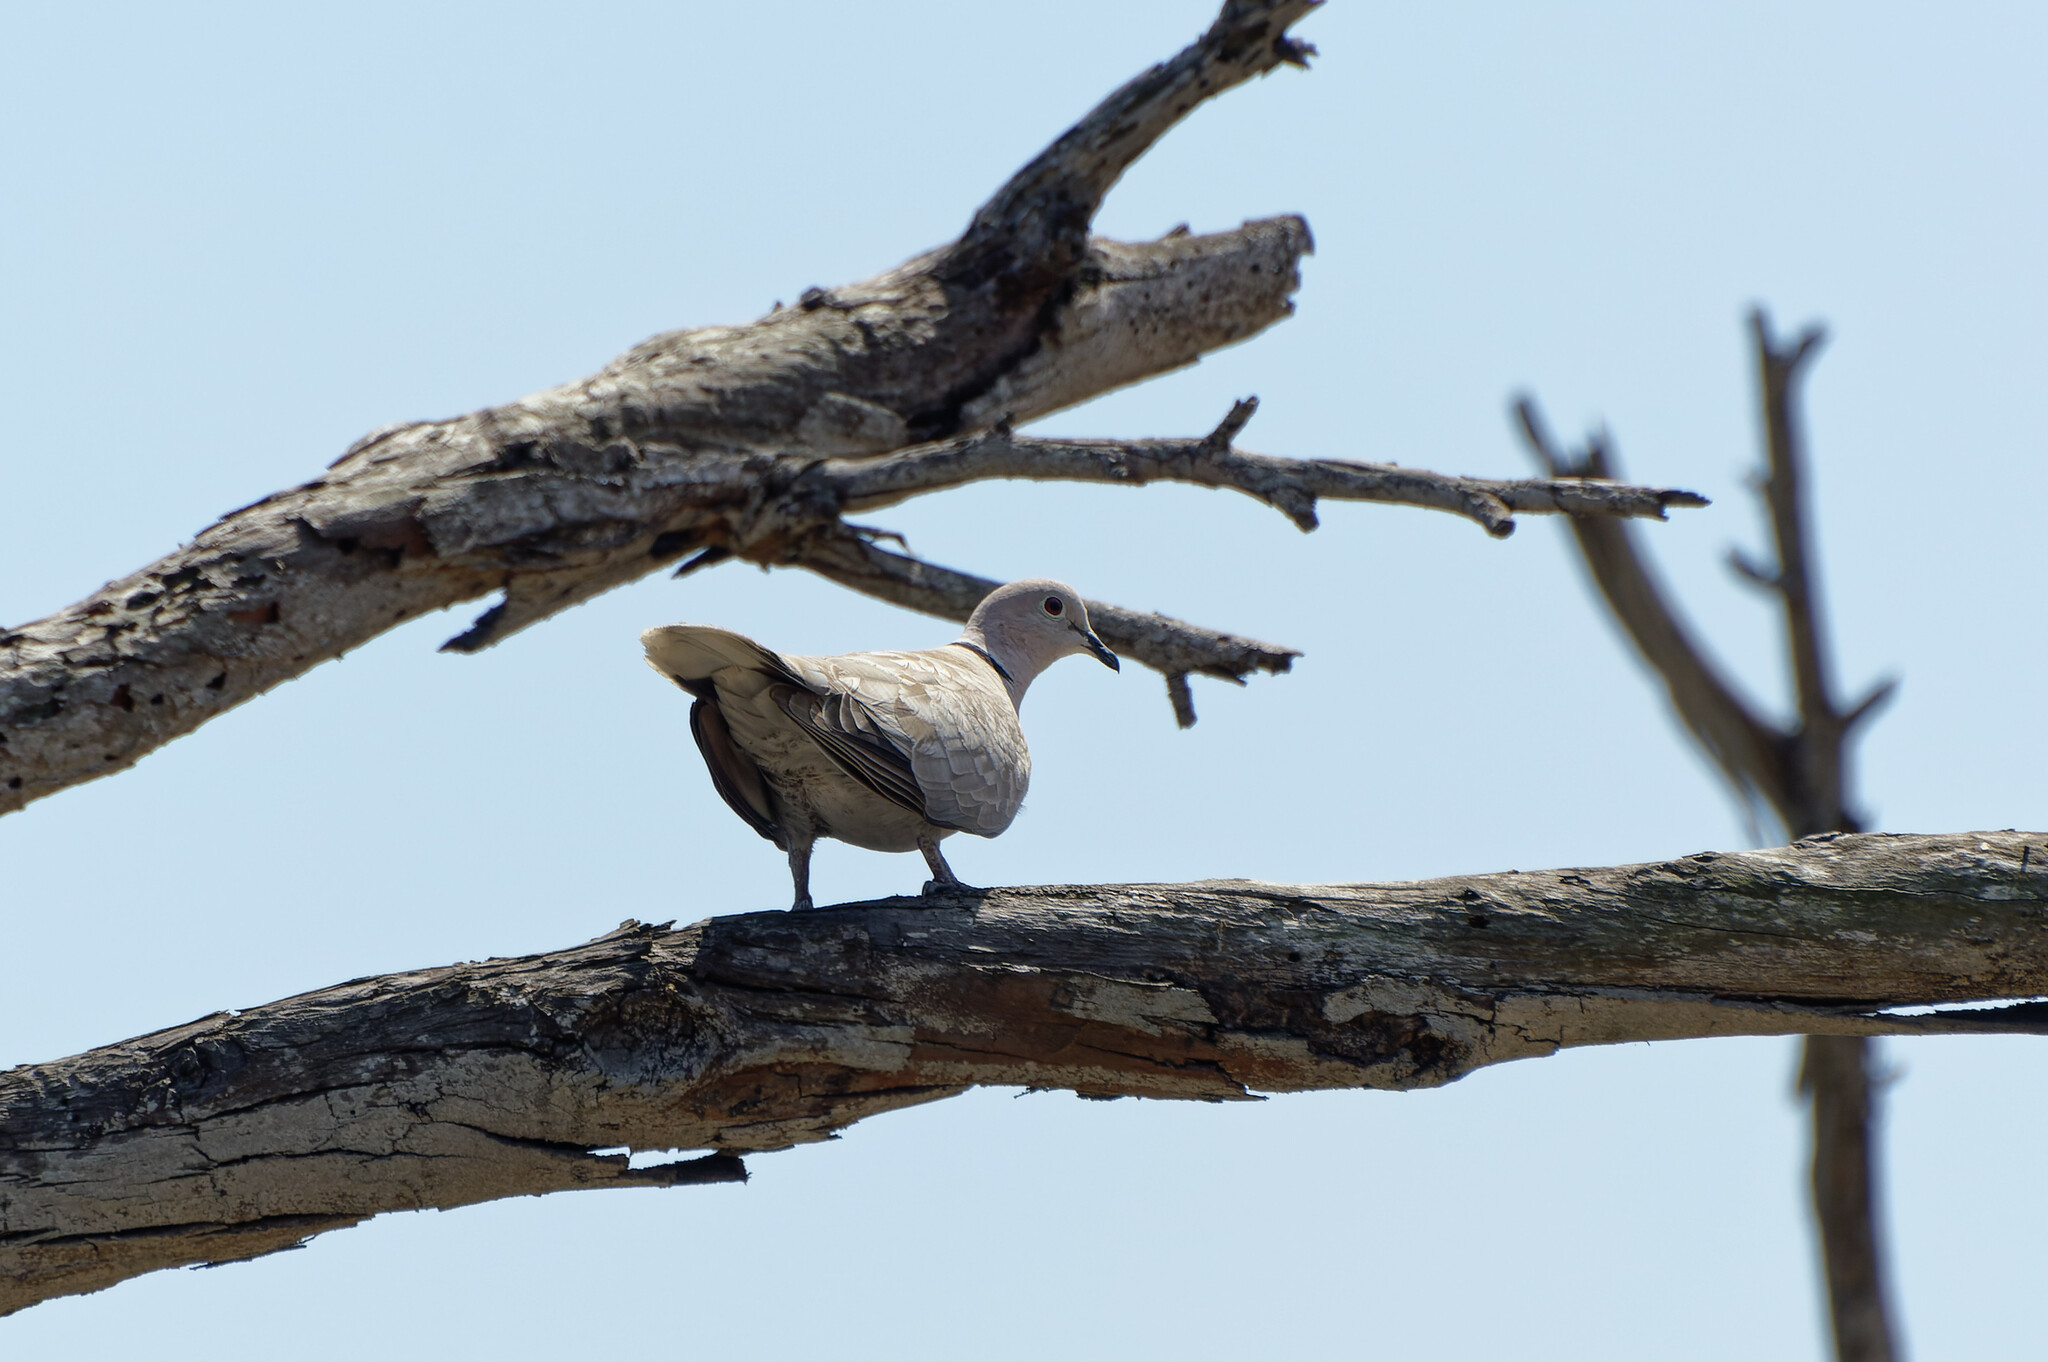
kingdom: Animalia
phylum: Chordata
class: Aves
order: Columbiformes
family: Columbidae
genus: Streptopelia
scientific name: Streptopelia decaocto
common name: Eurasian collared dove
